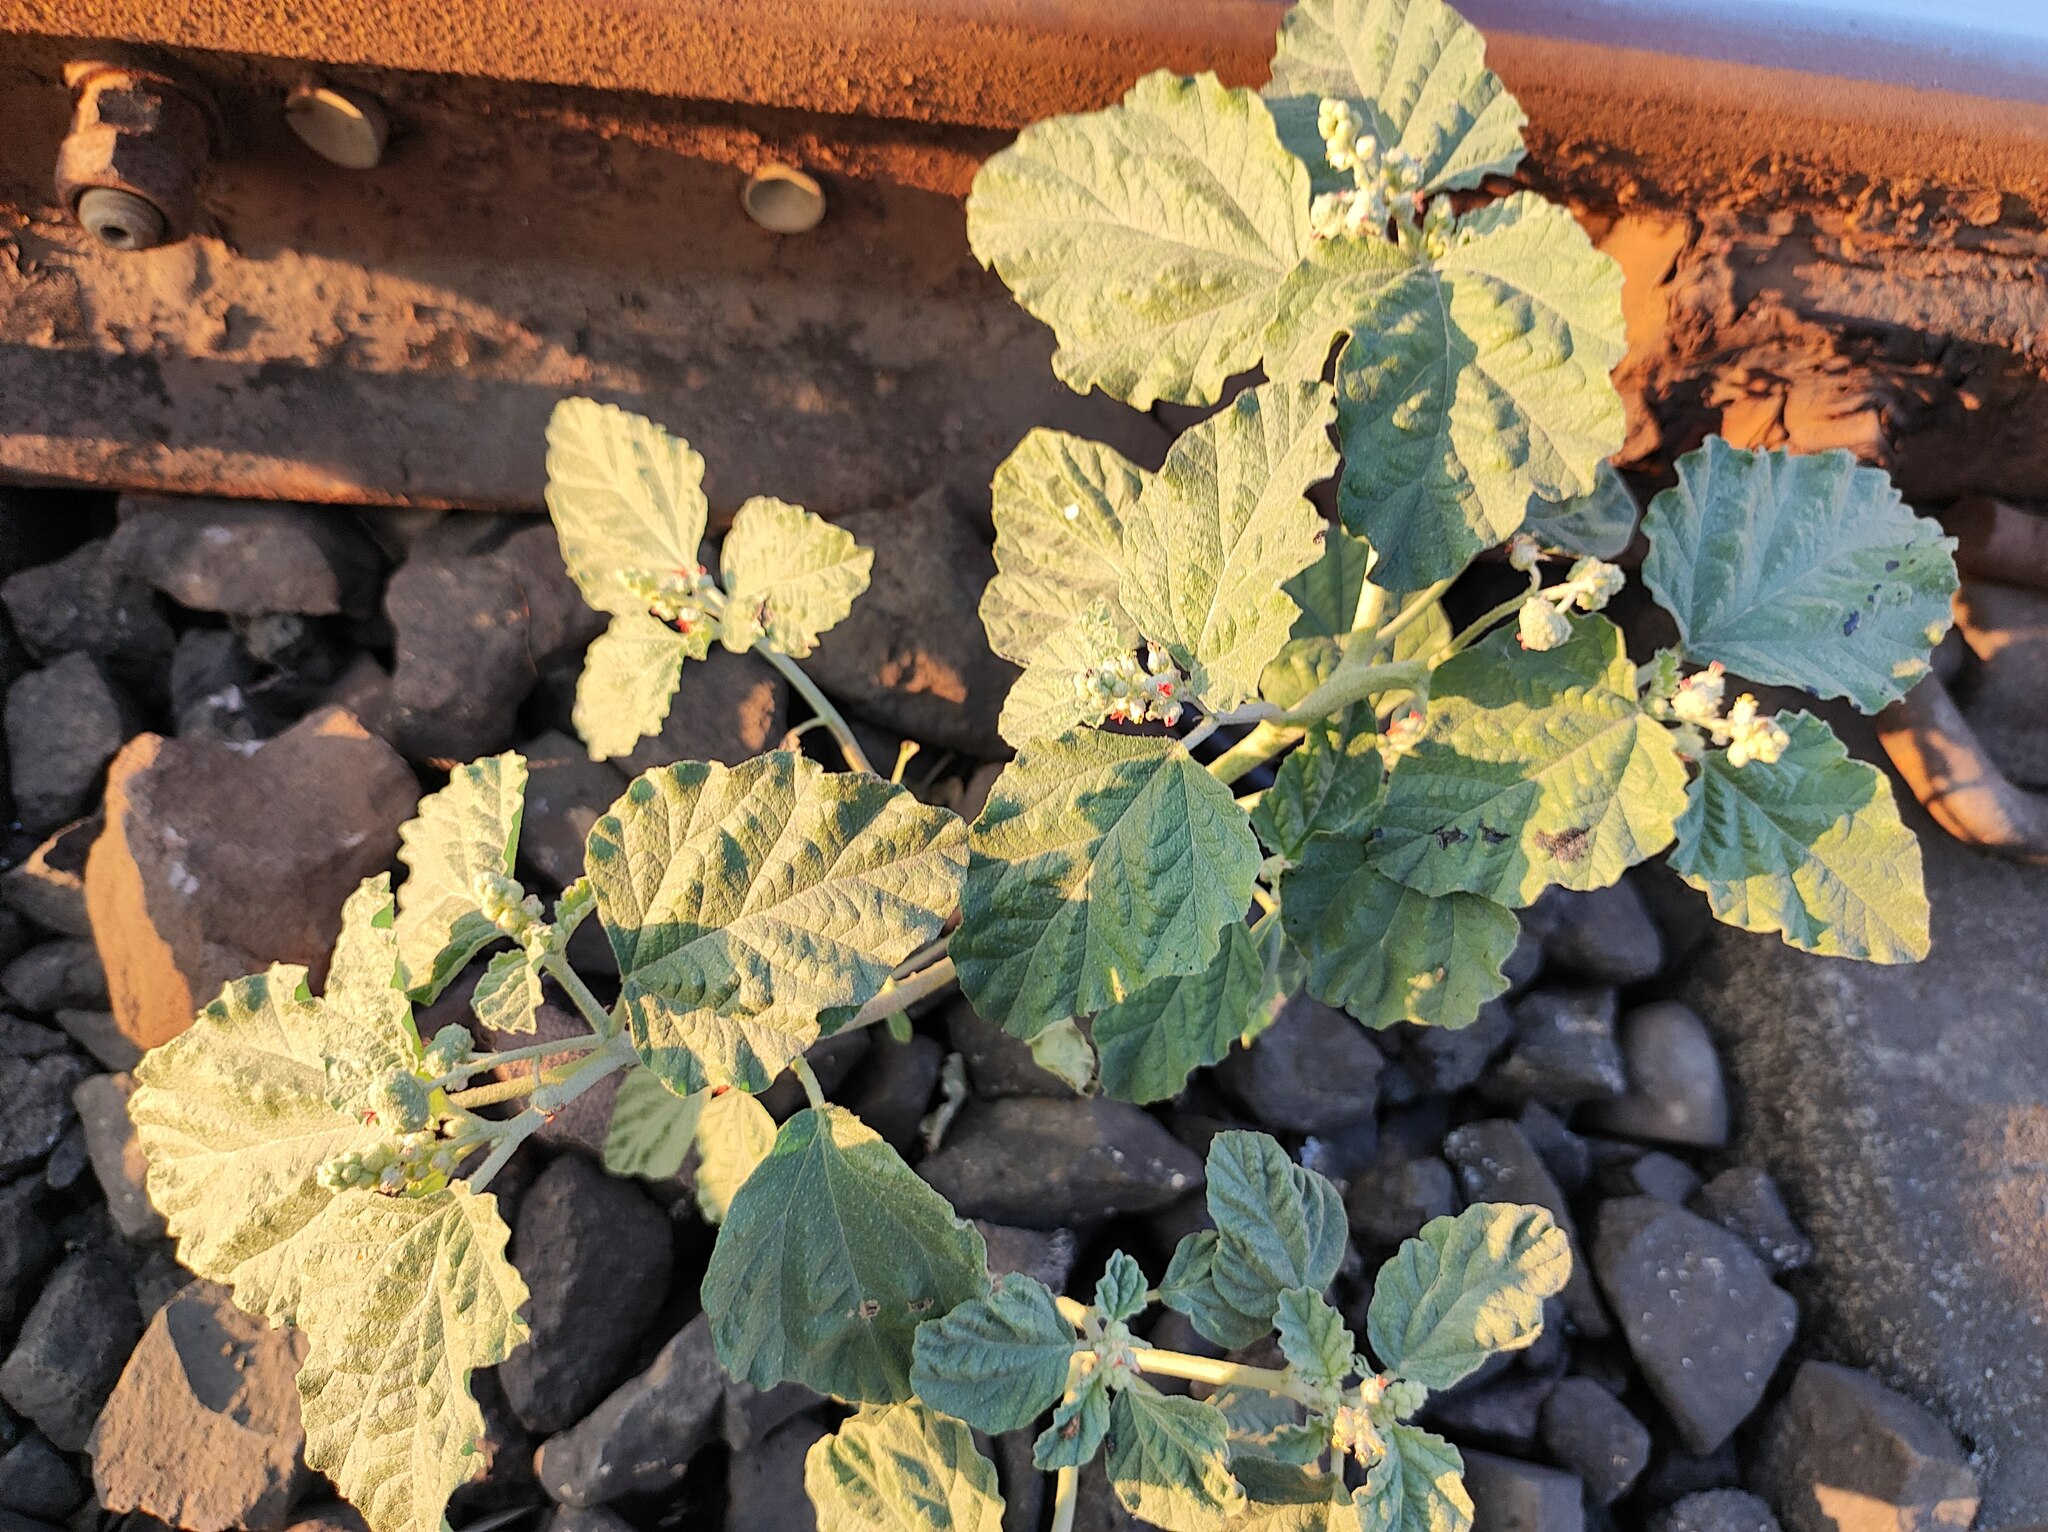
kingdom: Plantae
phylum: Tracheophyta
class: Magnoliopsida
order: Malpighiales
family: Euphorbiaceae
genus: Chrozophora
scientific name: Chrozophora rottleri
